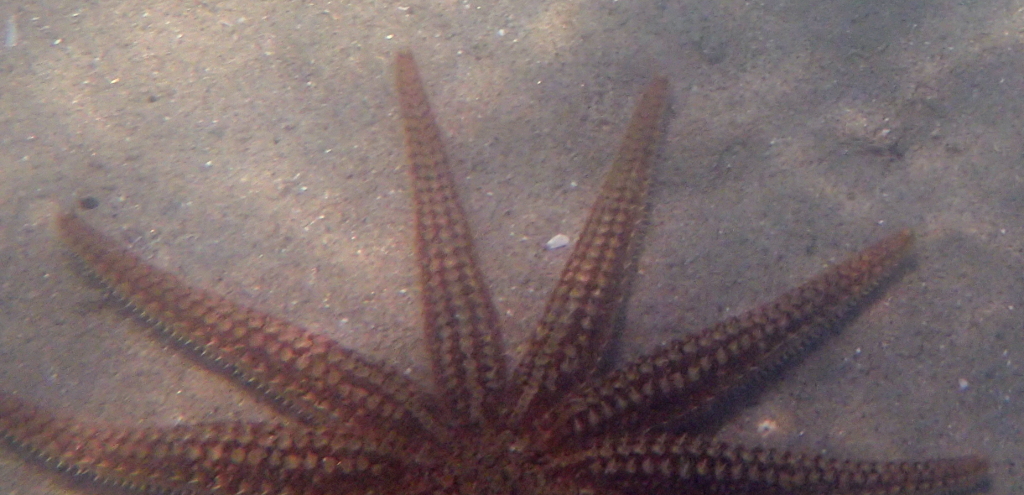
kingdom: Animalia
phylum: Echinodermata
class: Asteroidea
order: Forcipulatida
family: Asteriidae
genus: Coscinasterias
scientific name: Coscinasterias muricata
